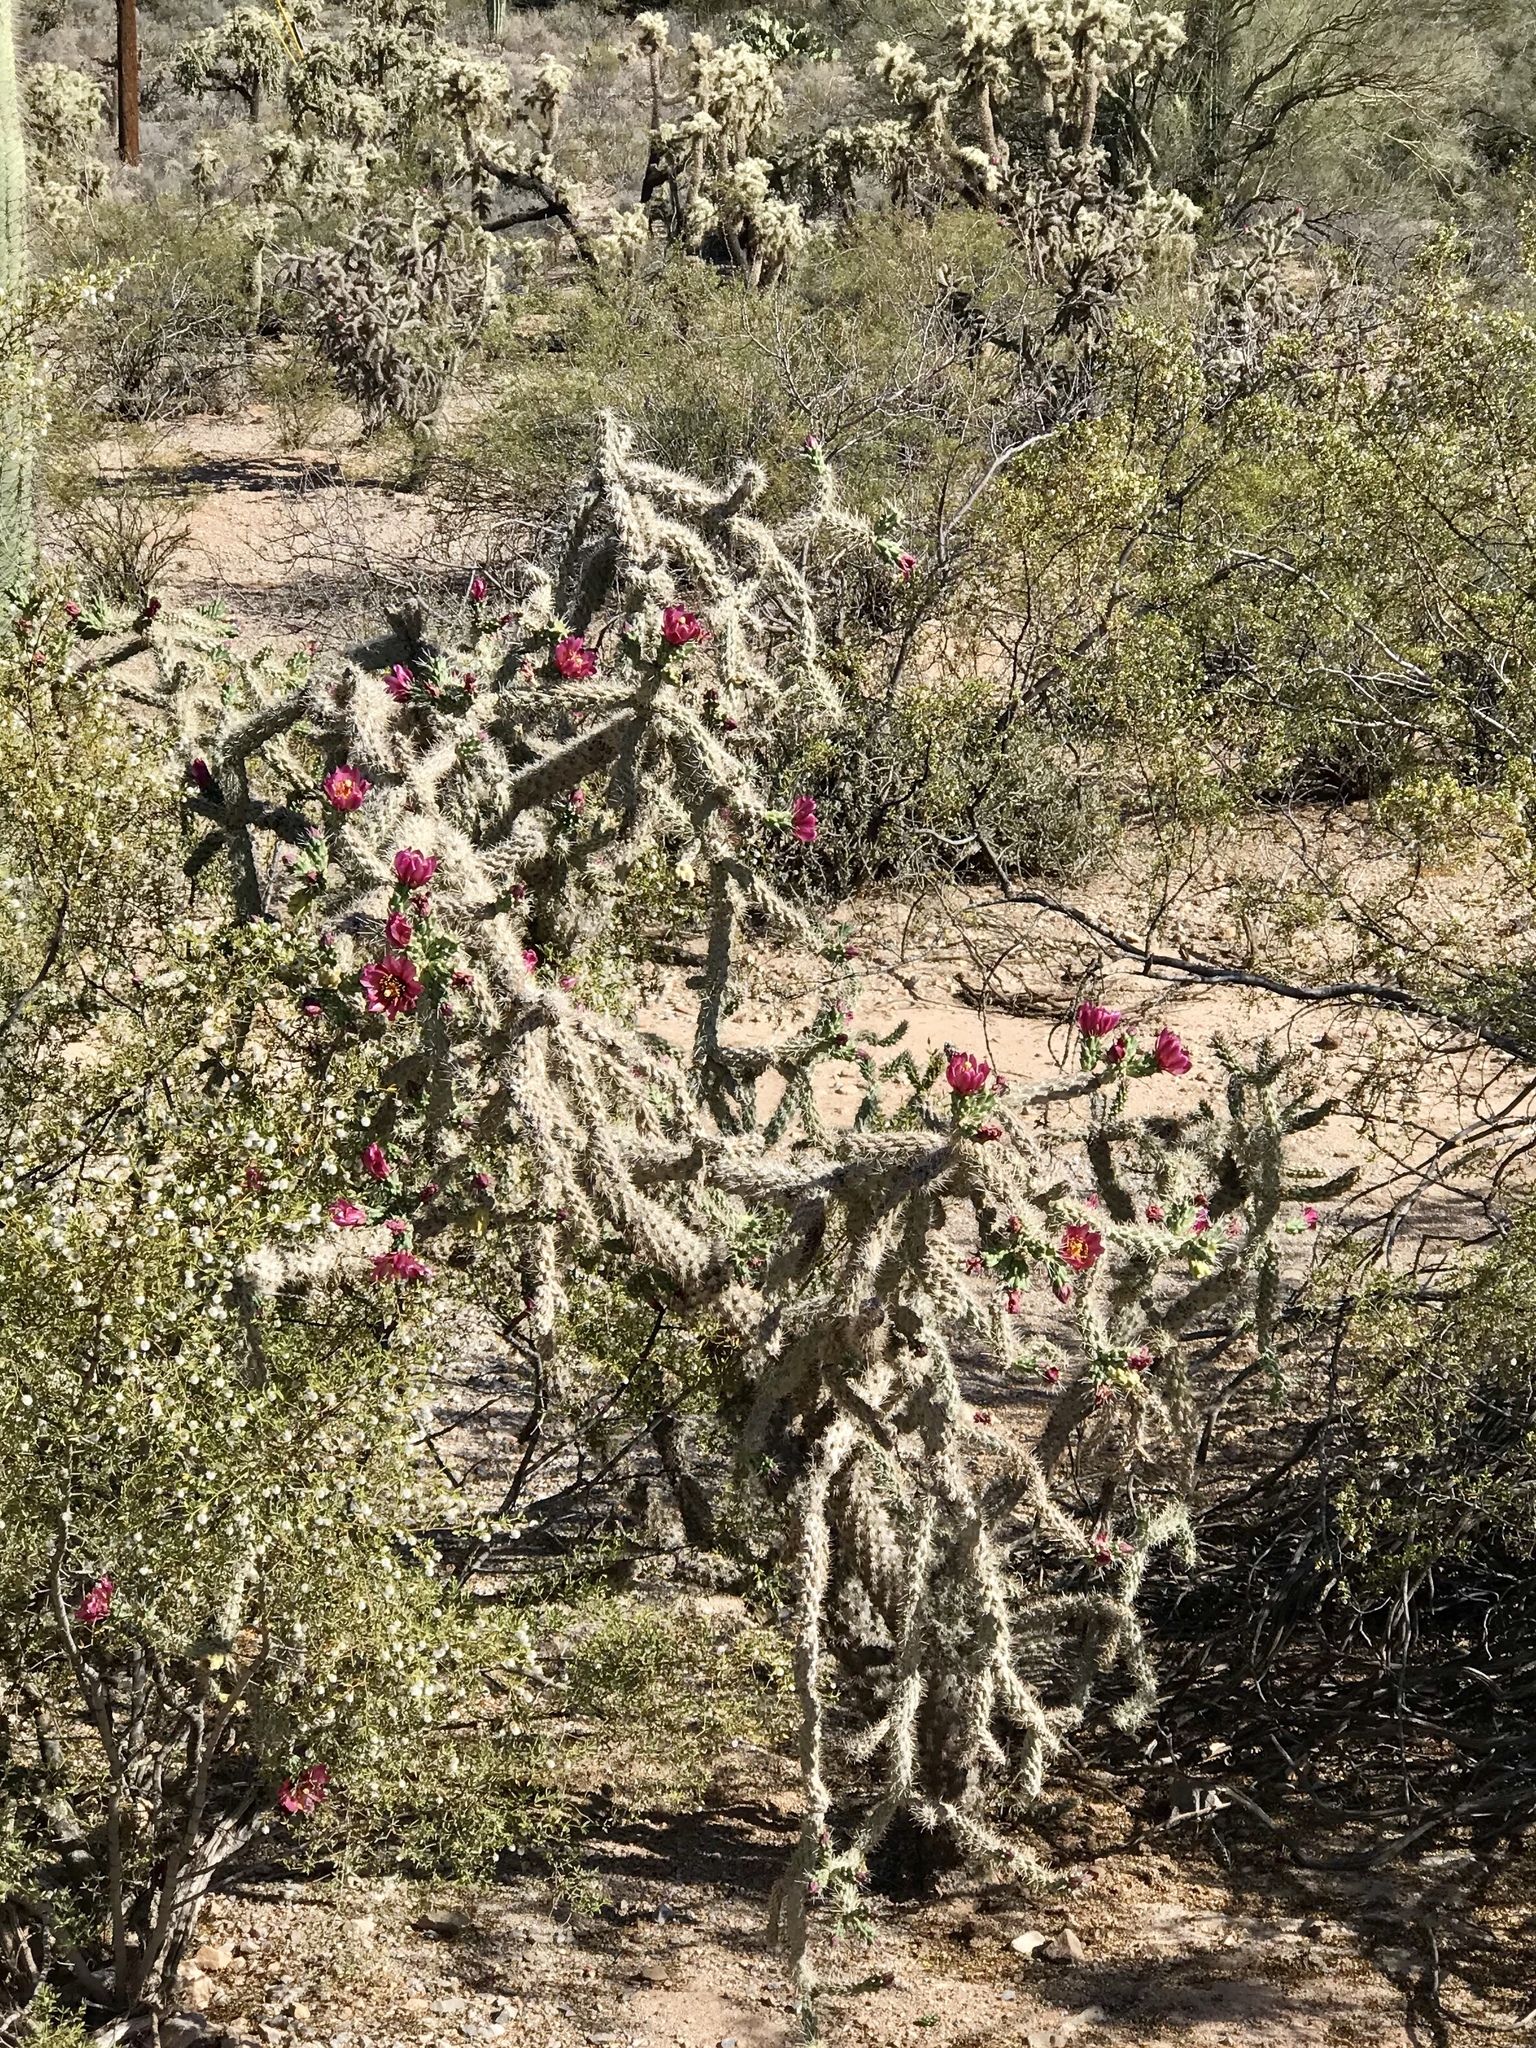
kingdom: Plantae
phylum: Tracheophyta
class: Magnoliopsida
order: Caryophyllales
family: Cactaceae
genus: Cylindropuntia
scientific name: Cylindropuntia imbricata
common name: Candelabrum cactus
